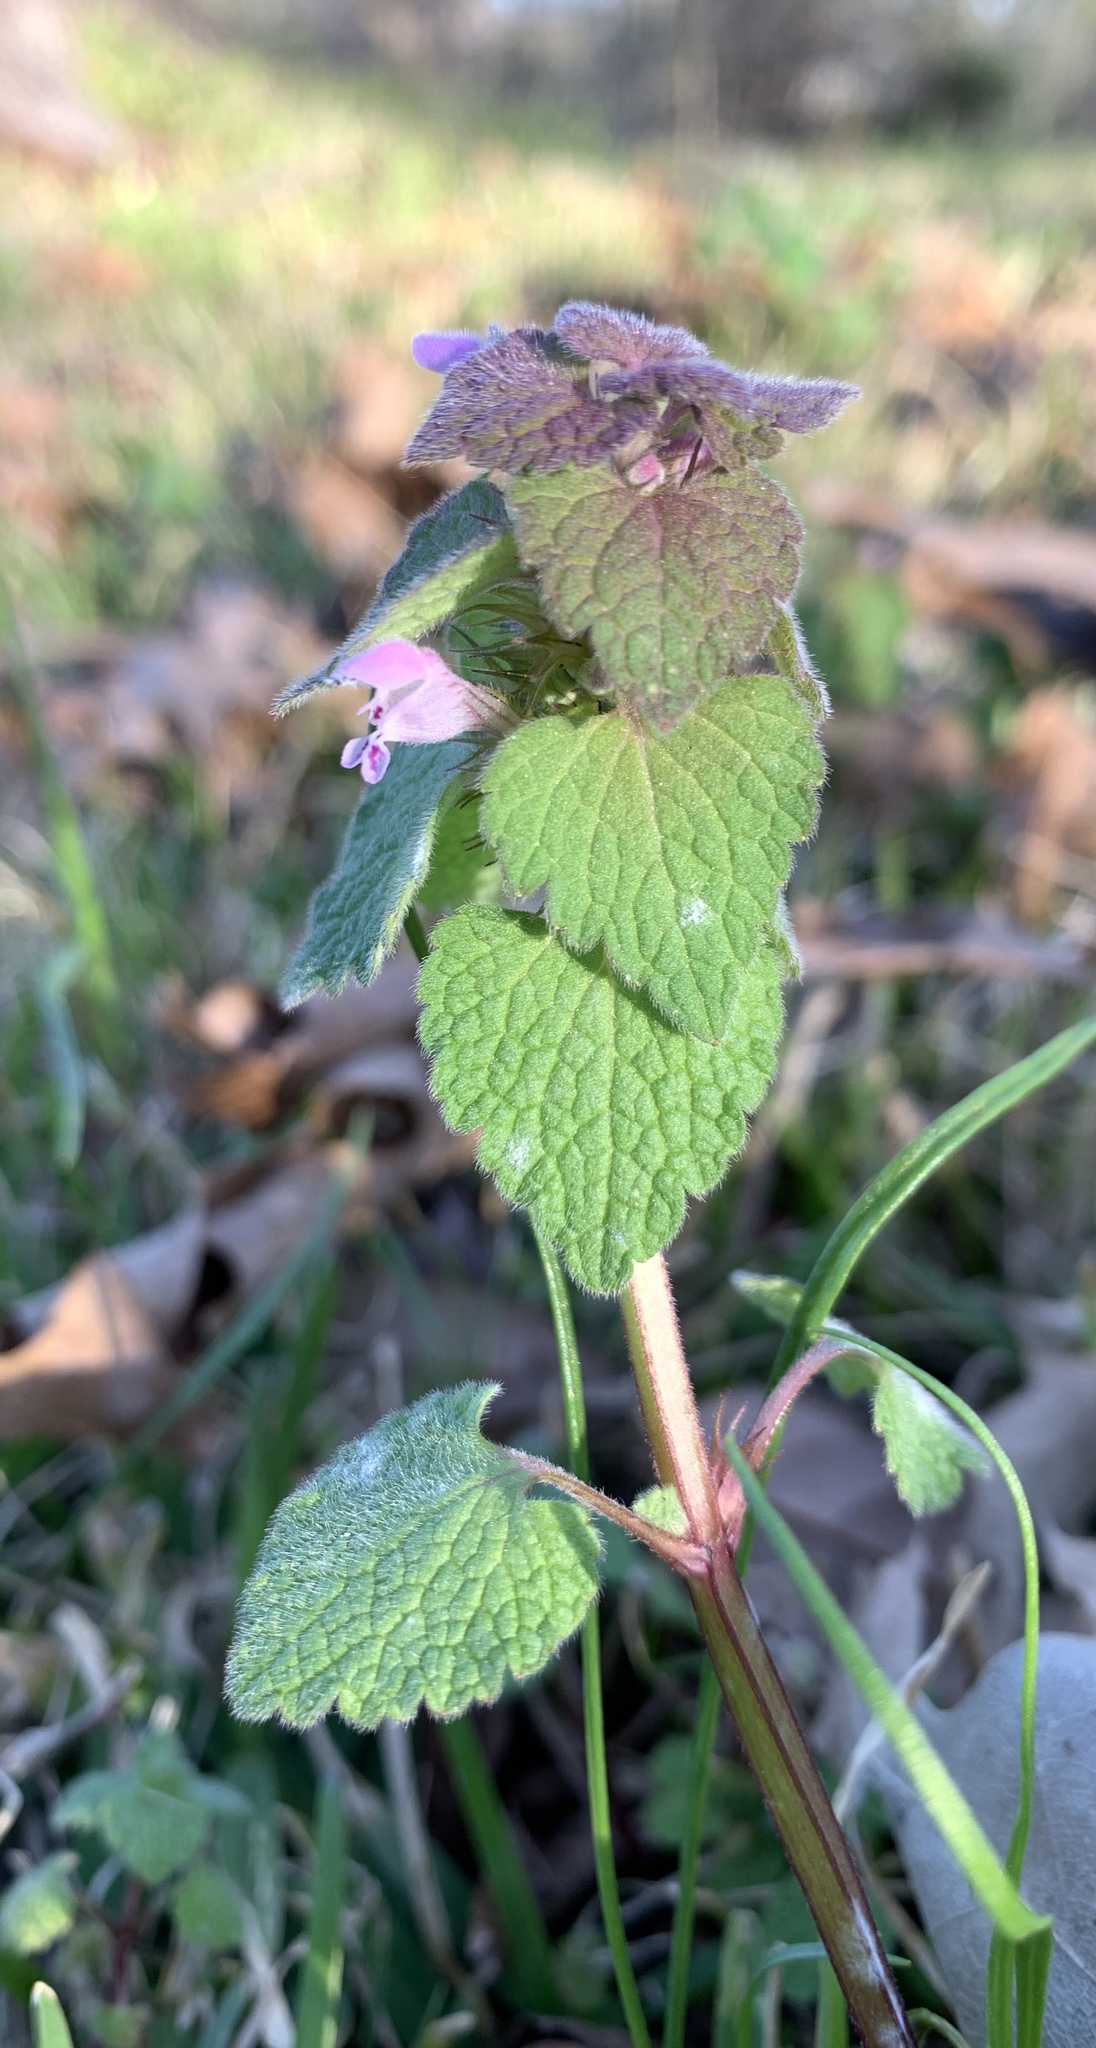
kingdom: Plantae
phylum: Tracheophyta
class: Magnoliopsida
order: Lamiales
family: Lamiaceae
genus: Lamium
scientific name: Lamium purpureum
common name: Red dead-nettle
